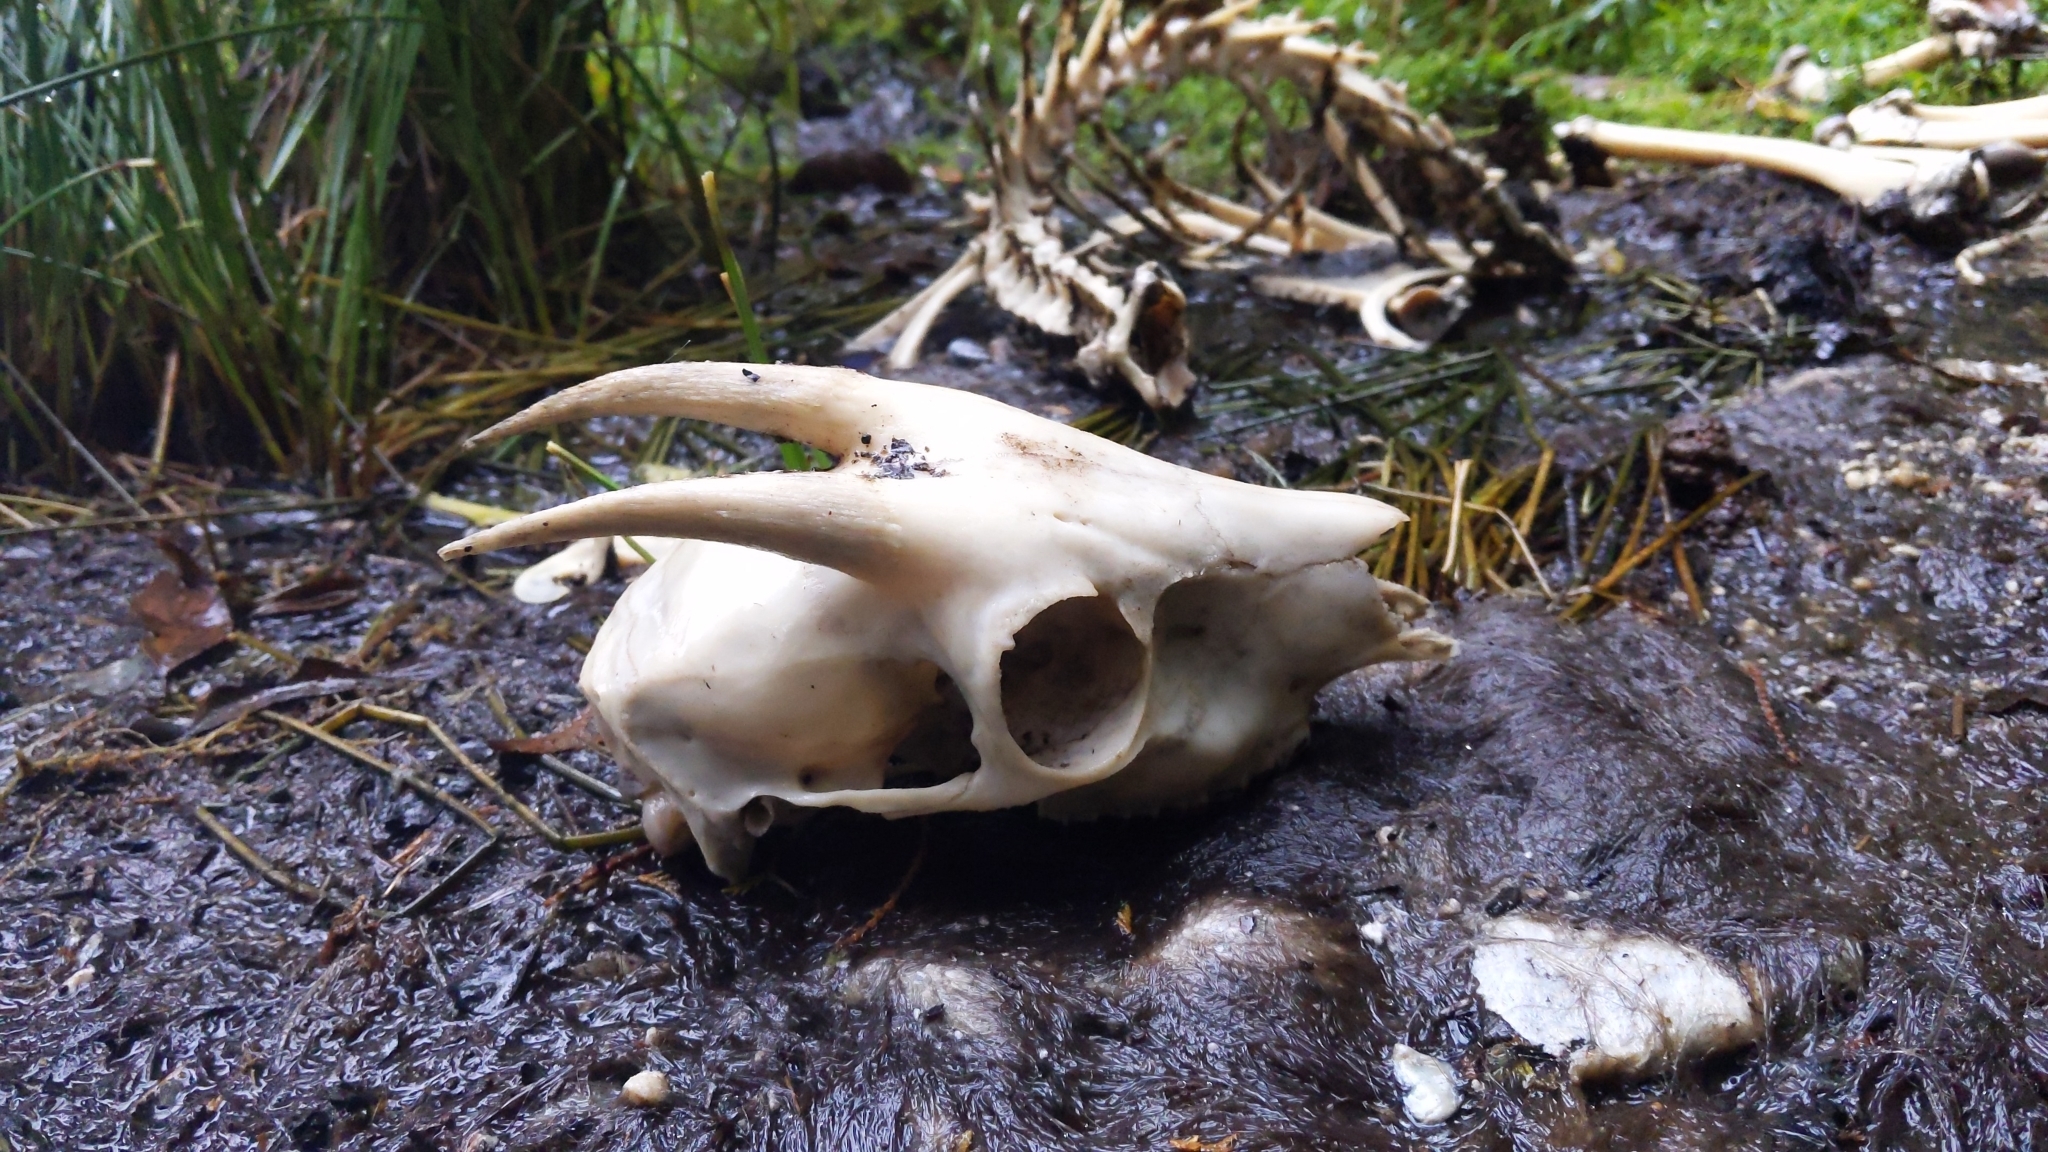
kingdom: Animalia
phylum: Chordata
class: Mammalia
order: Artiodactyla
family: Bovidae
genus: Capricornis
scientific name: Capricornis swinhoei
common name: Formosan serow
